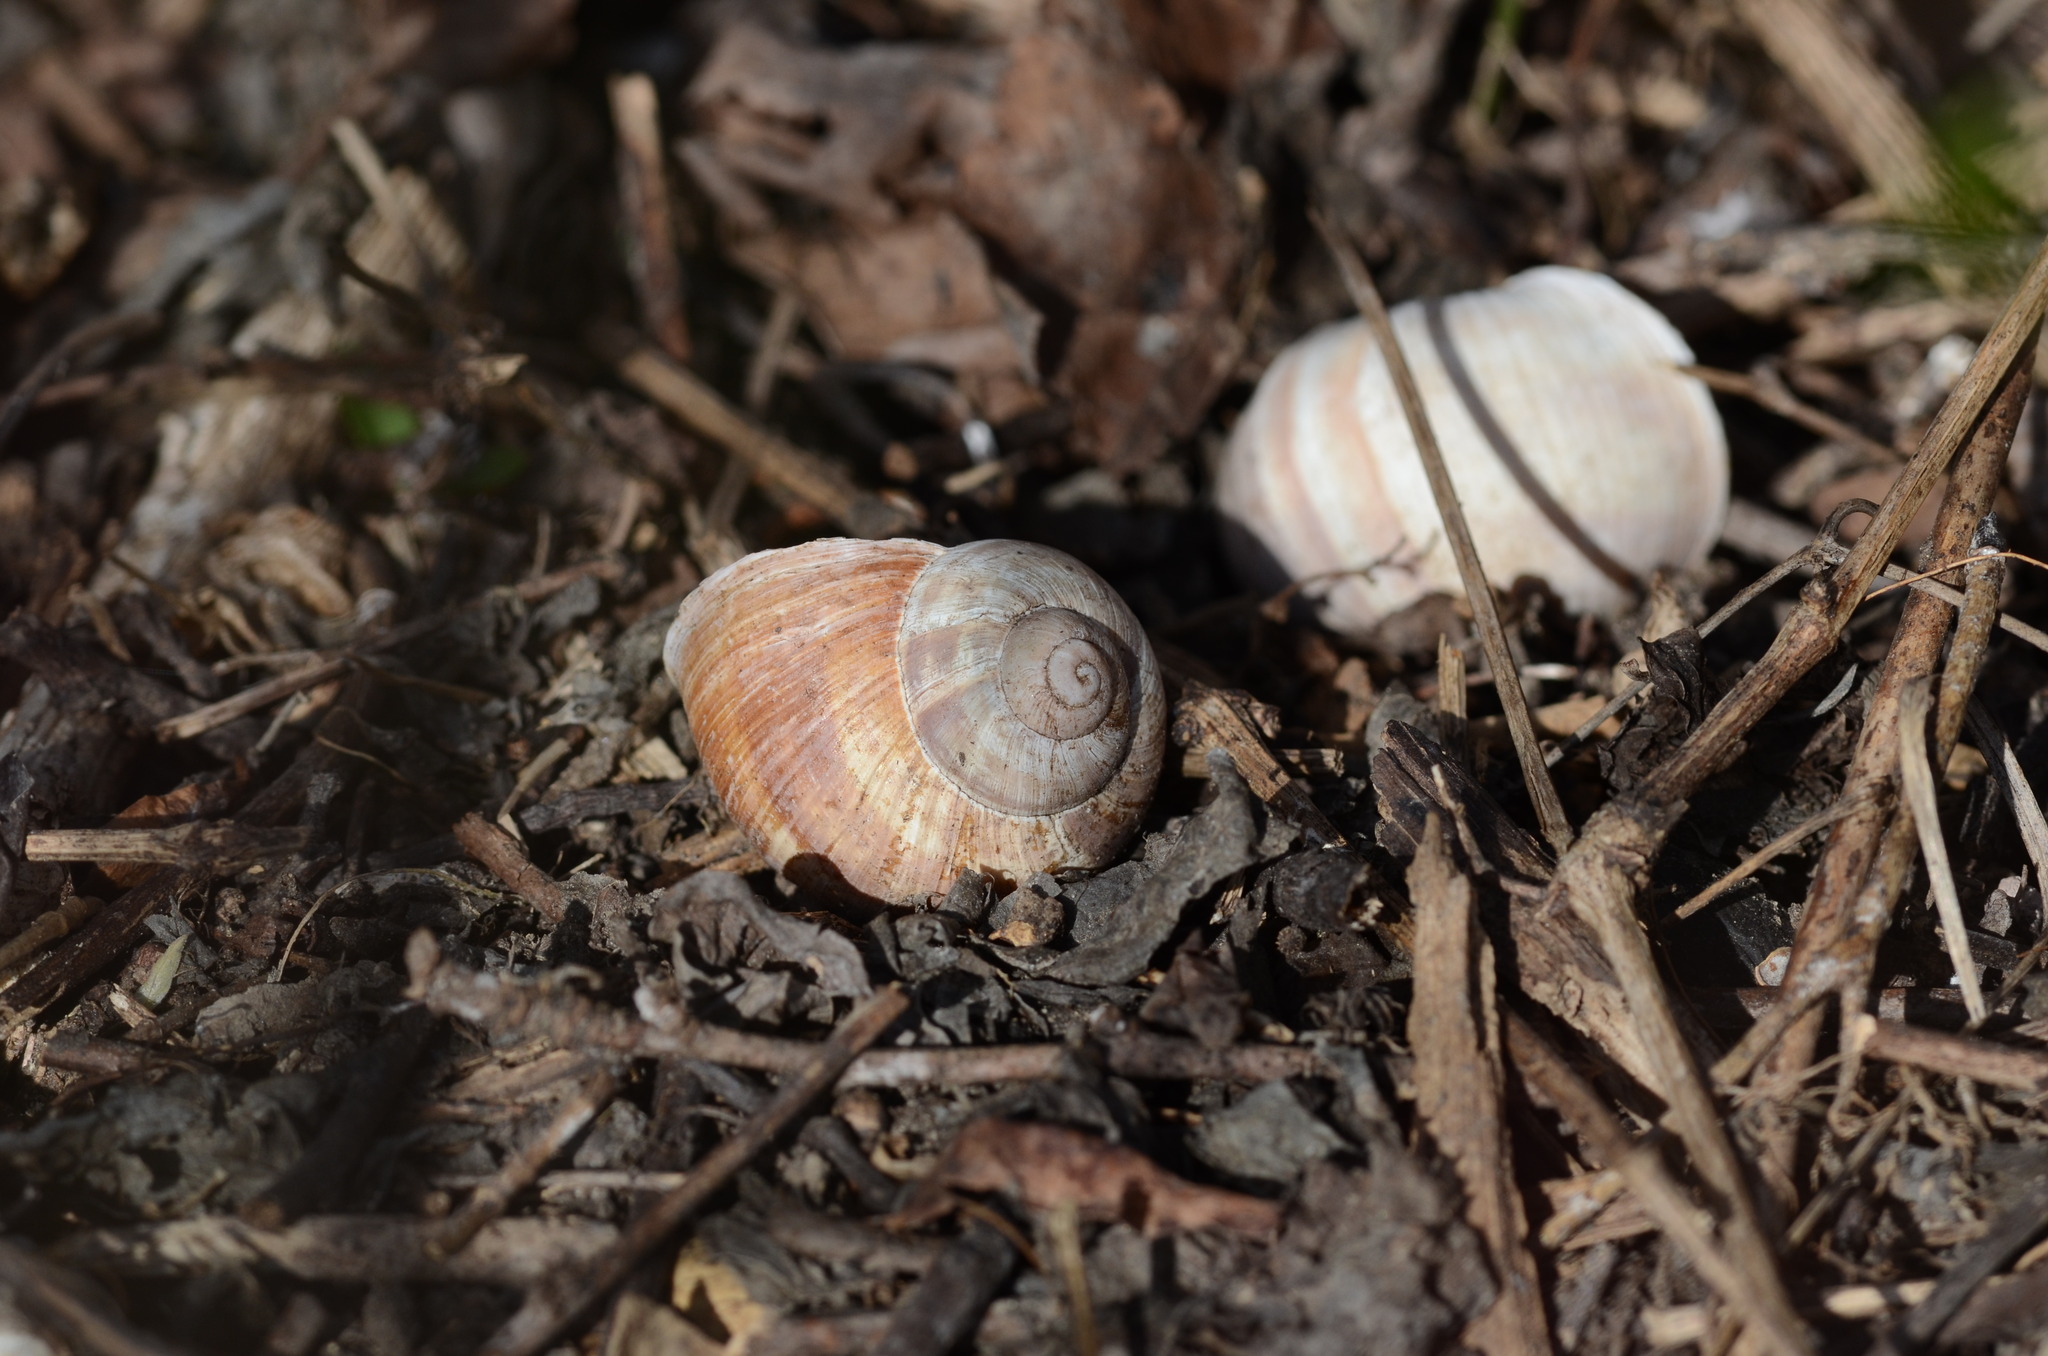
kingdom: Animalia
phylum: Mollusca
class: Gastropoda
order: Stylommatophora
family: Helicidae
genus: Helix
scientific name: Helix pomatia
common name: Roman snail
